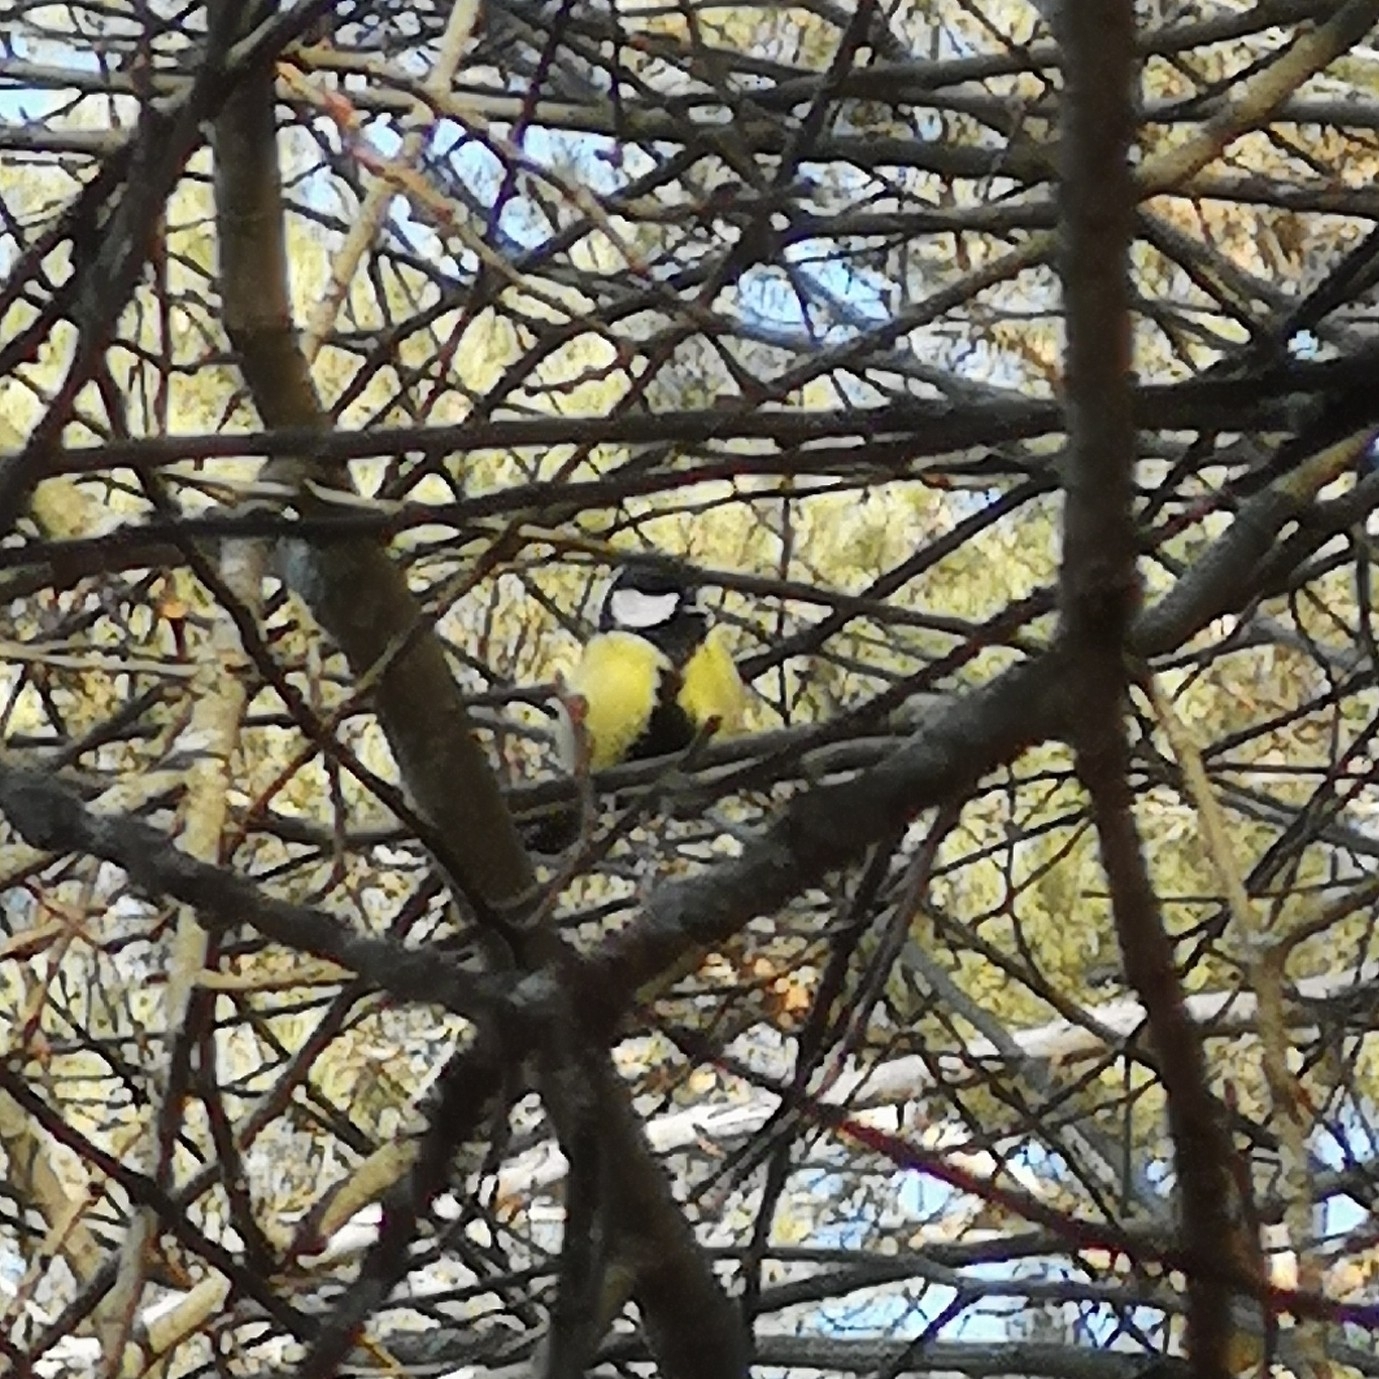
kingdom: Animalia
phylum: Chordata
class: Aves
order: Passeriformes
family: Paridae
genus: Parus
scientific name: Parus major
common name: Great tit
